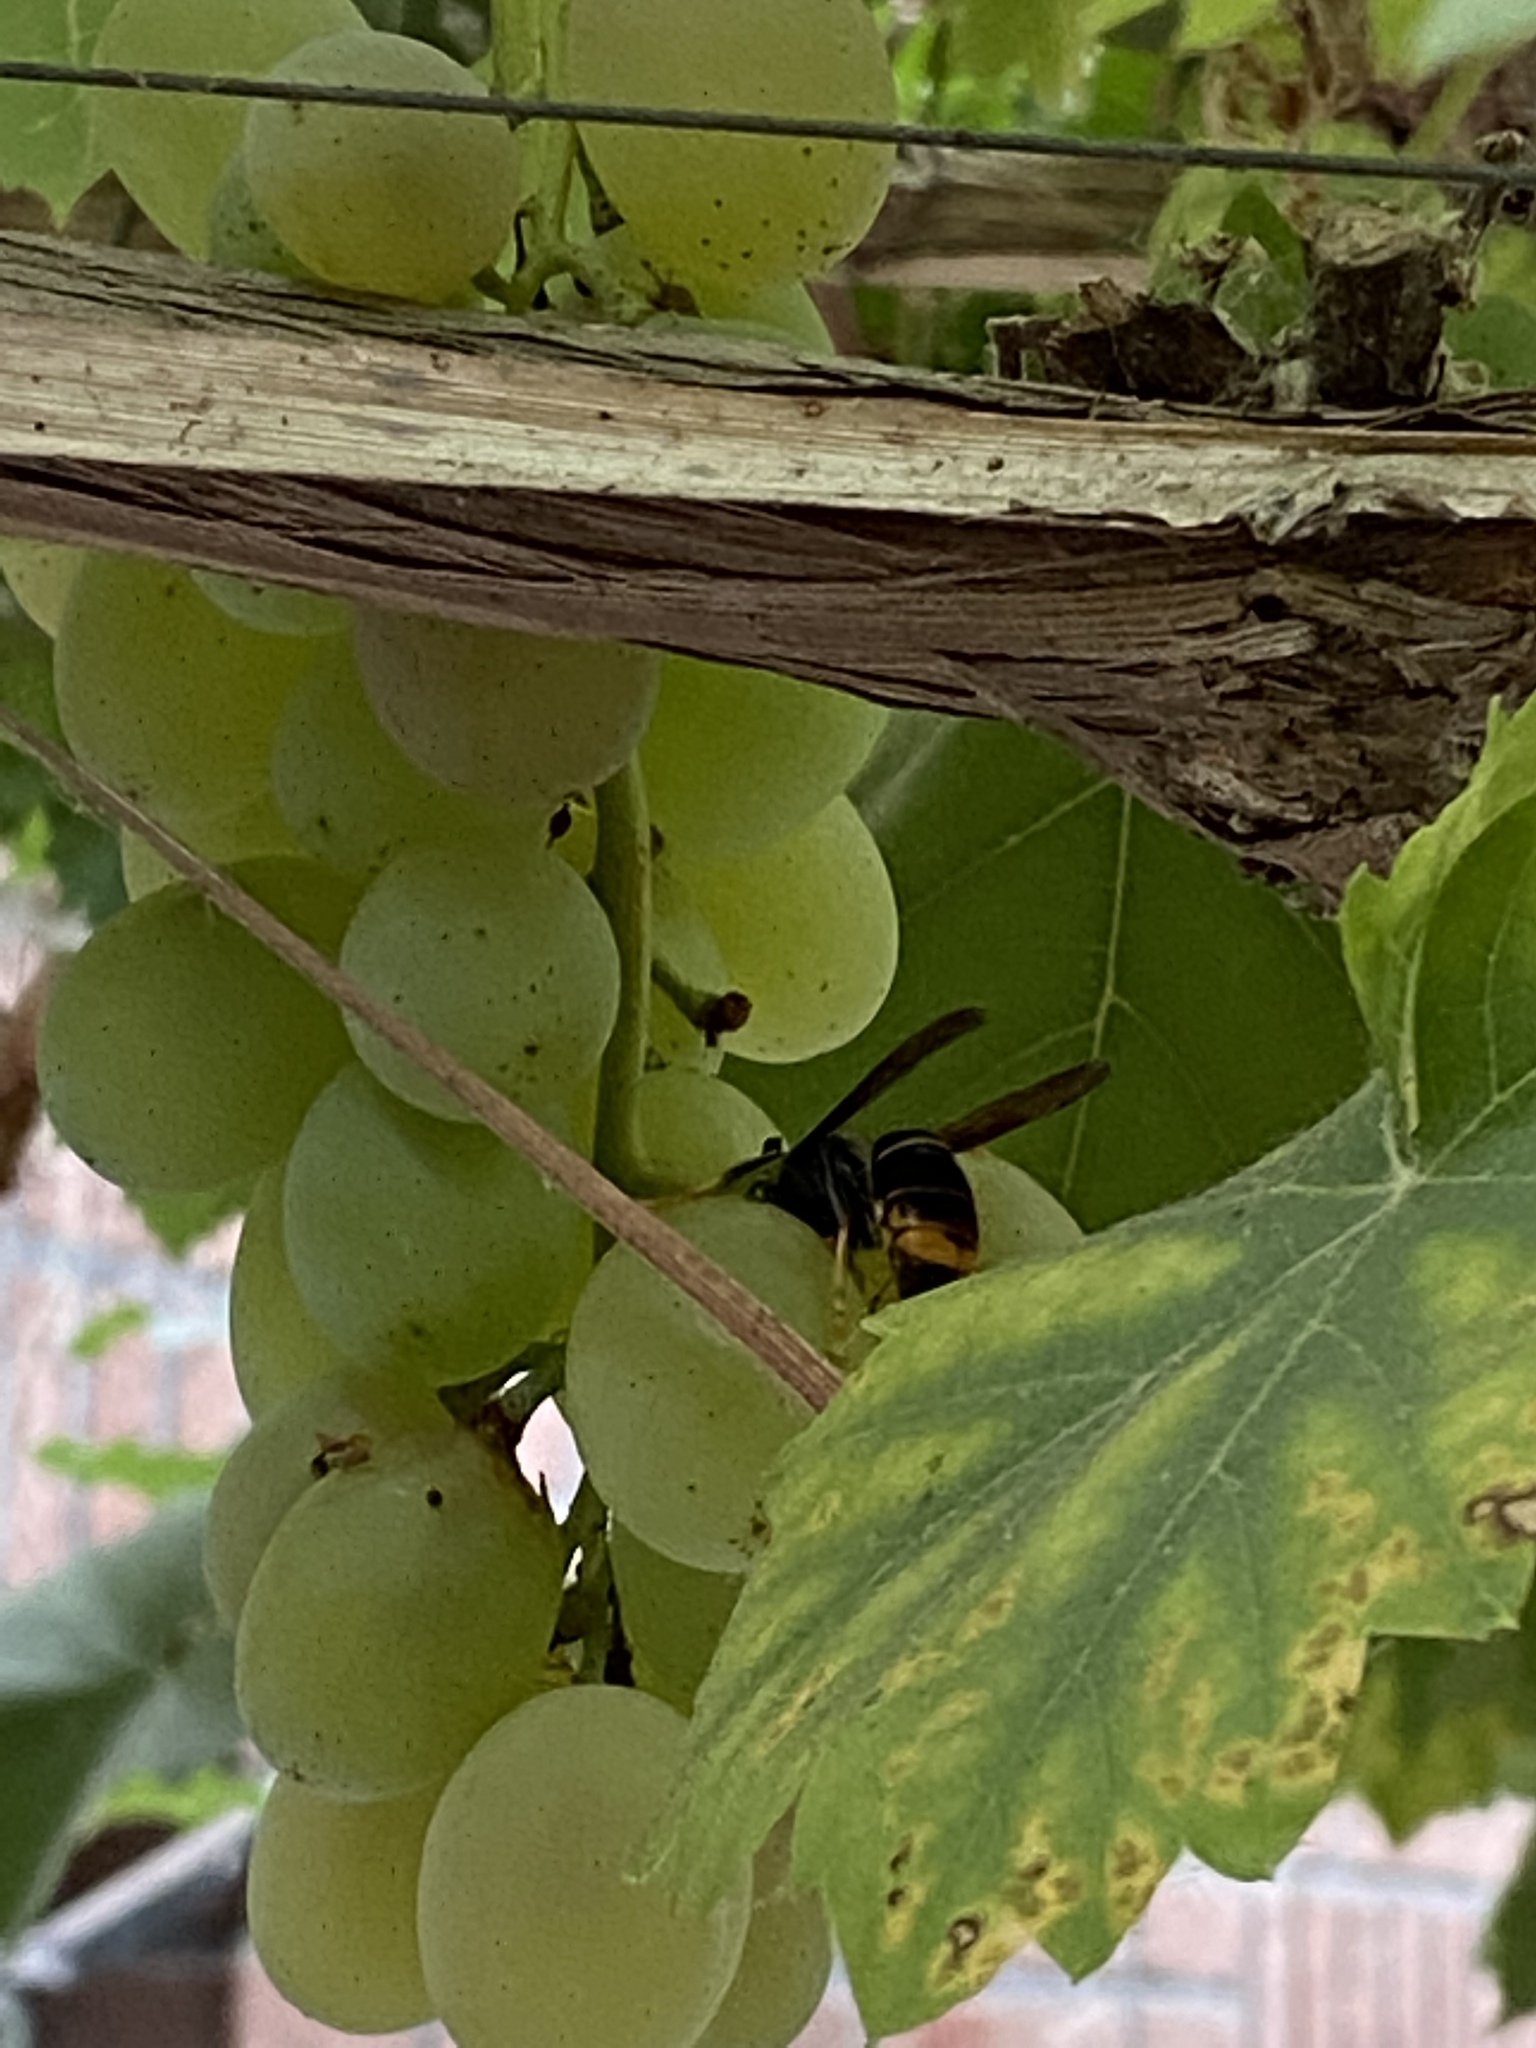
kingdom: Animalia
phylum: Arthropoda
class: Insecta
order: Hymenoptera
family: Vespidae
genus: Vespa
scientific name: Vespa velutina
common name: Asian hornet
